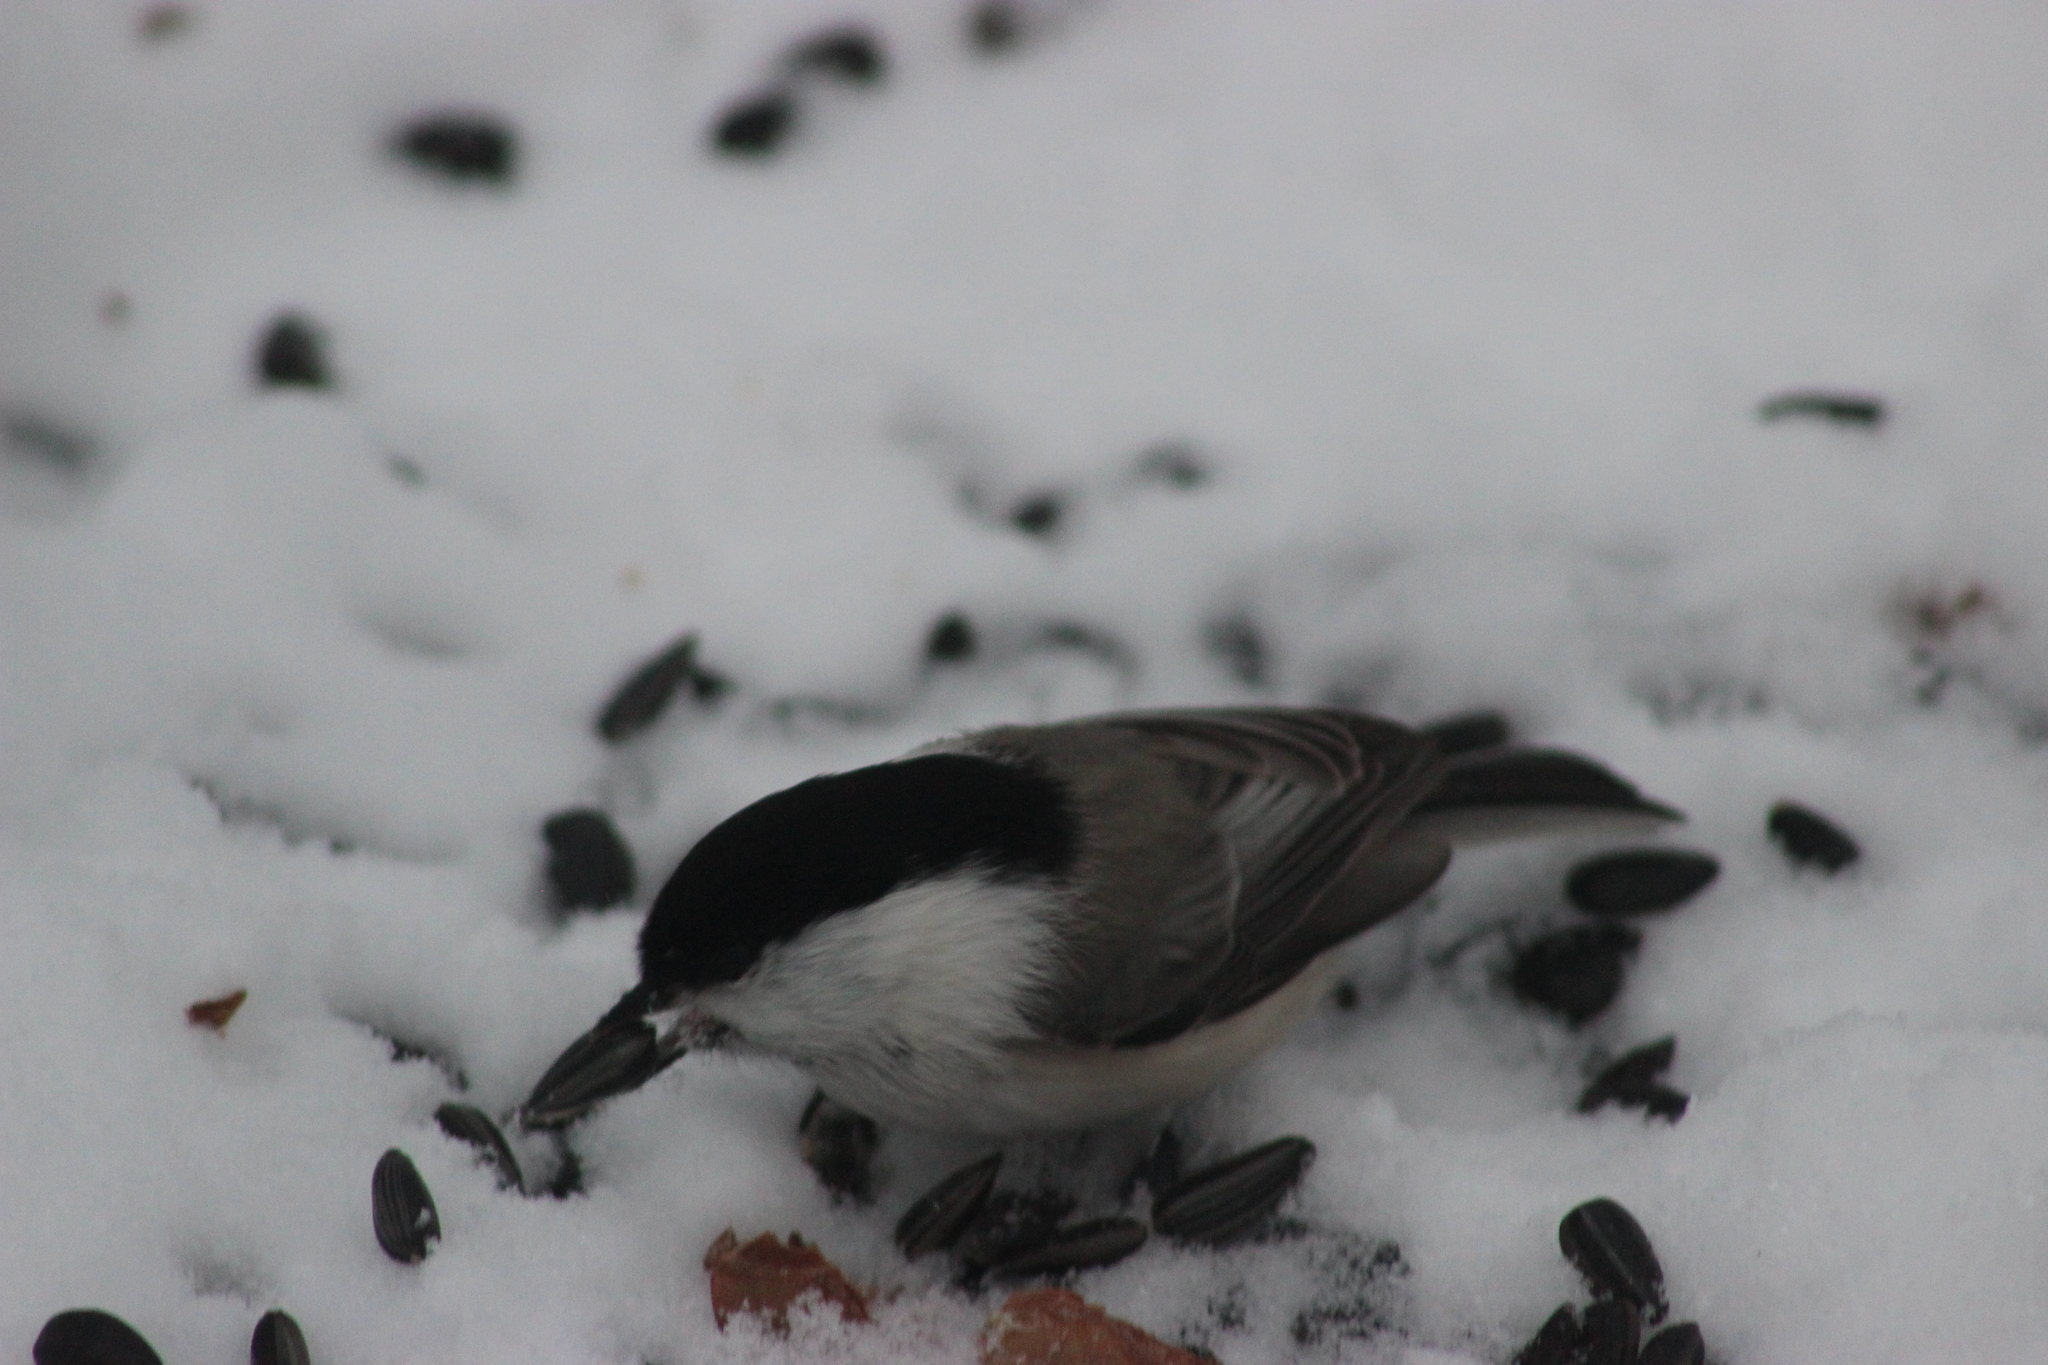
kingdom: Animalia
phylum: Chordata
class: Aves
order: Passeriformes
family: Paridae
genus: Poecile
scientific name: Poecile montanus
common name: Willow tit
